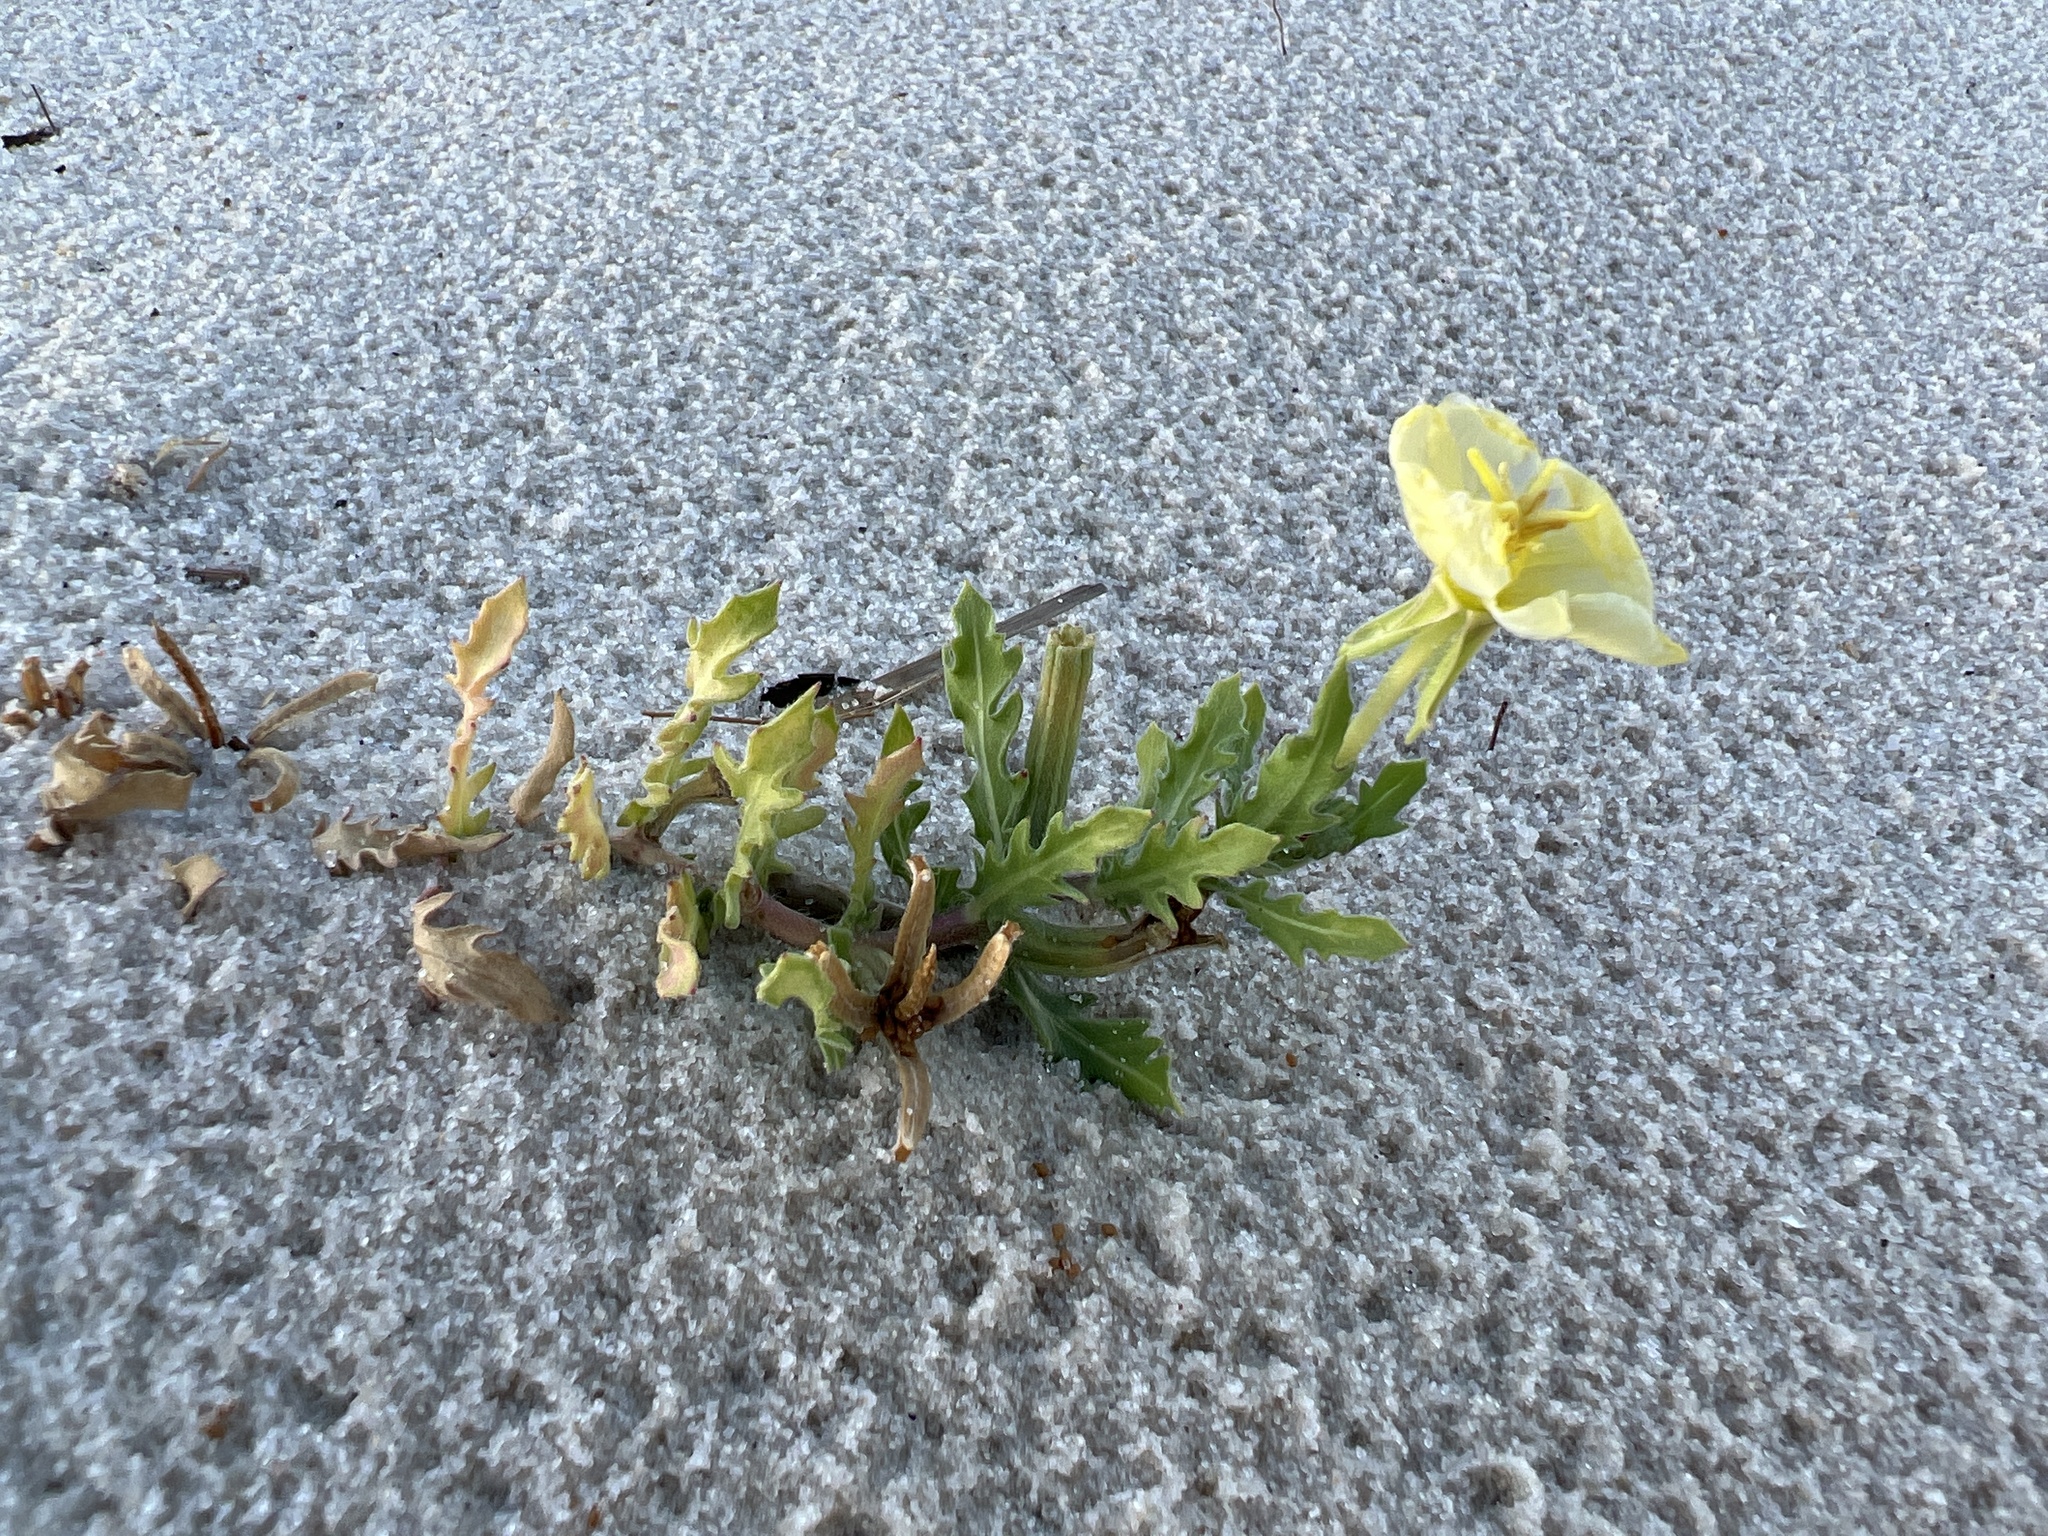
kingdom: Plantae
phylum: Tracheophyta
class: Magnoliopsida
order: Myrtales
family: Onagraceae
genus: Oenothera
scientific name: Oenothera humifusa
